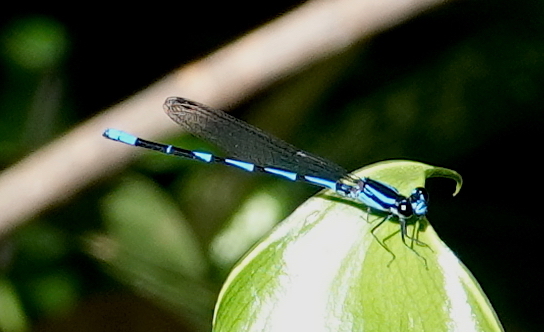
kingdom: Animalia
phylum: Arthropoda
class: Insecta
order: Odonata
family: Coenagrionidae
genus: Argia
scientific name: Argia oculata
